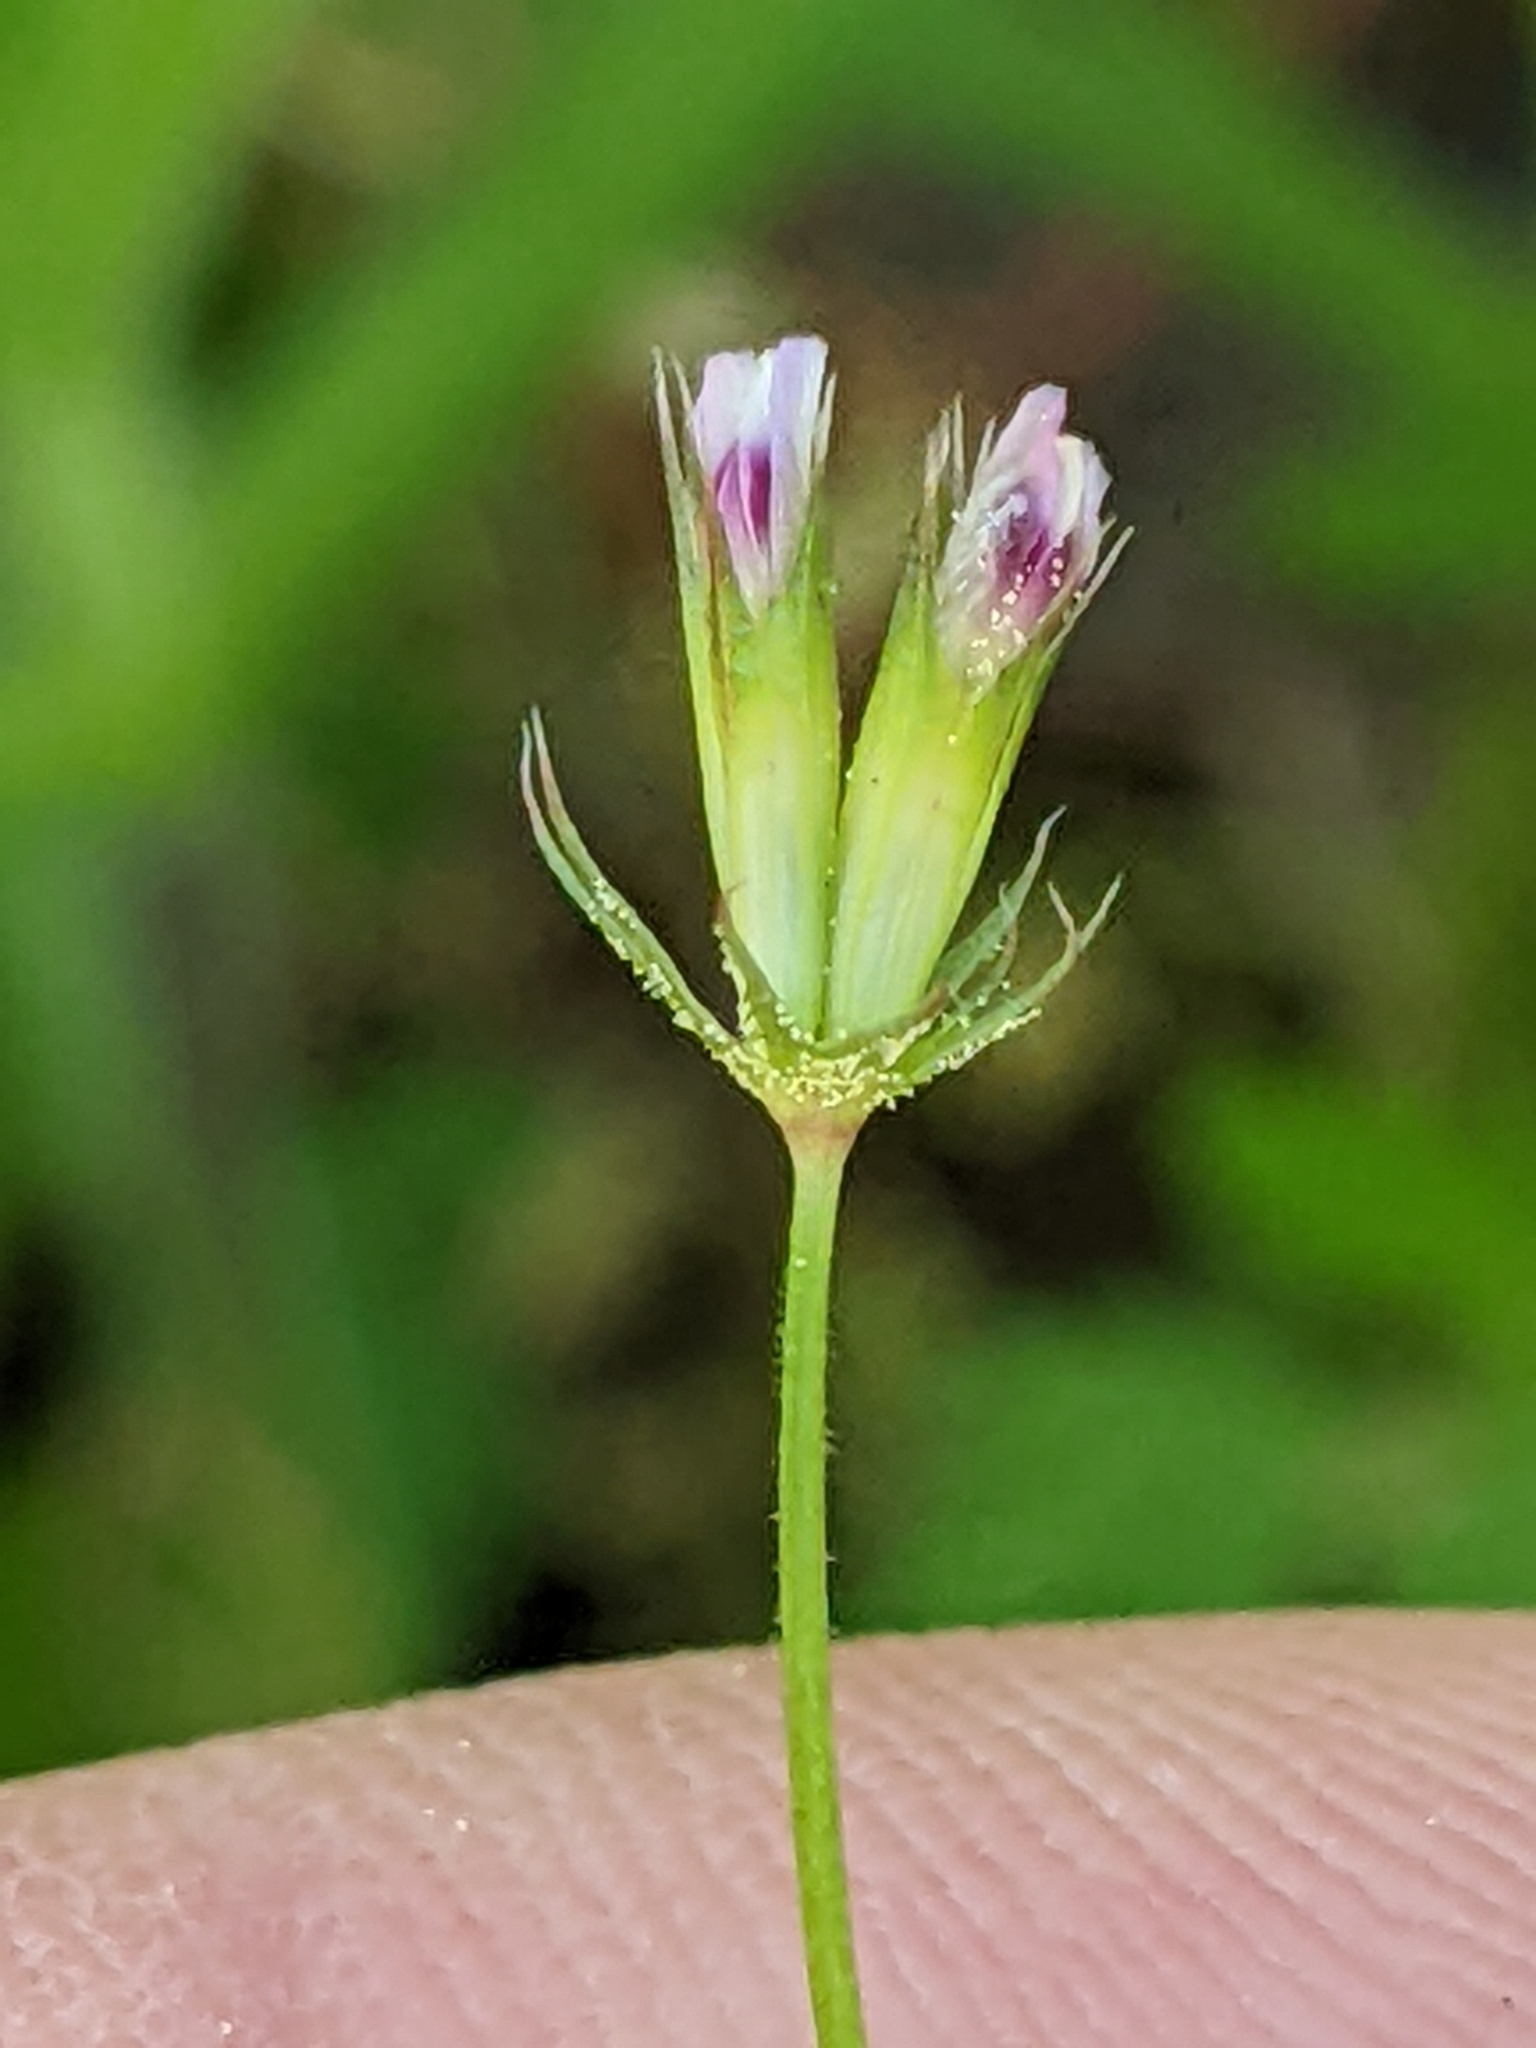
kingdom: Plantae
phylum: Tracheophyta
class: Magnoliopsida
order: Fabales
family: Fabaceae
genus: Trifolium
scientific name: Trifolium oliganthum
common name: Few-flower clover
